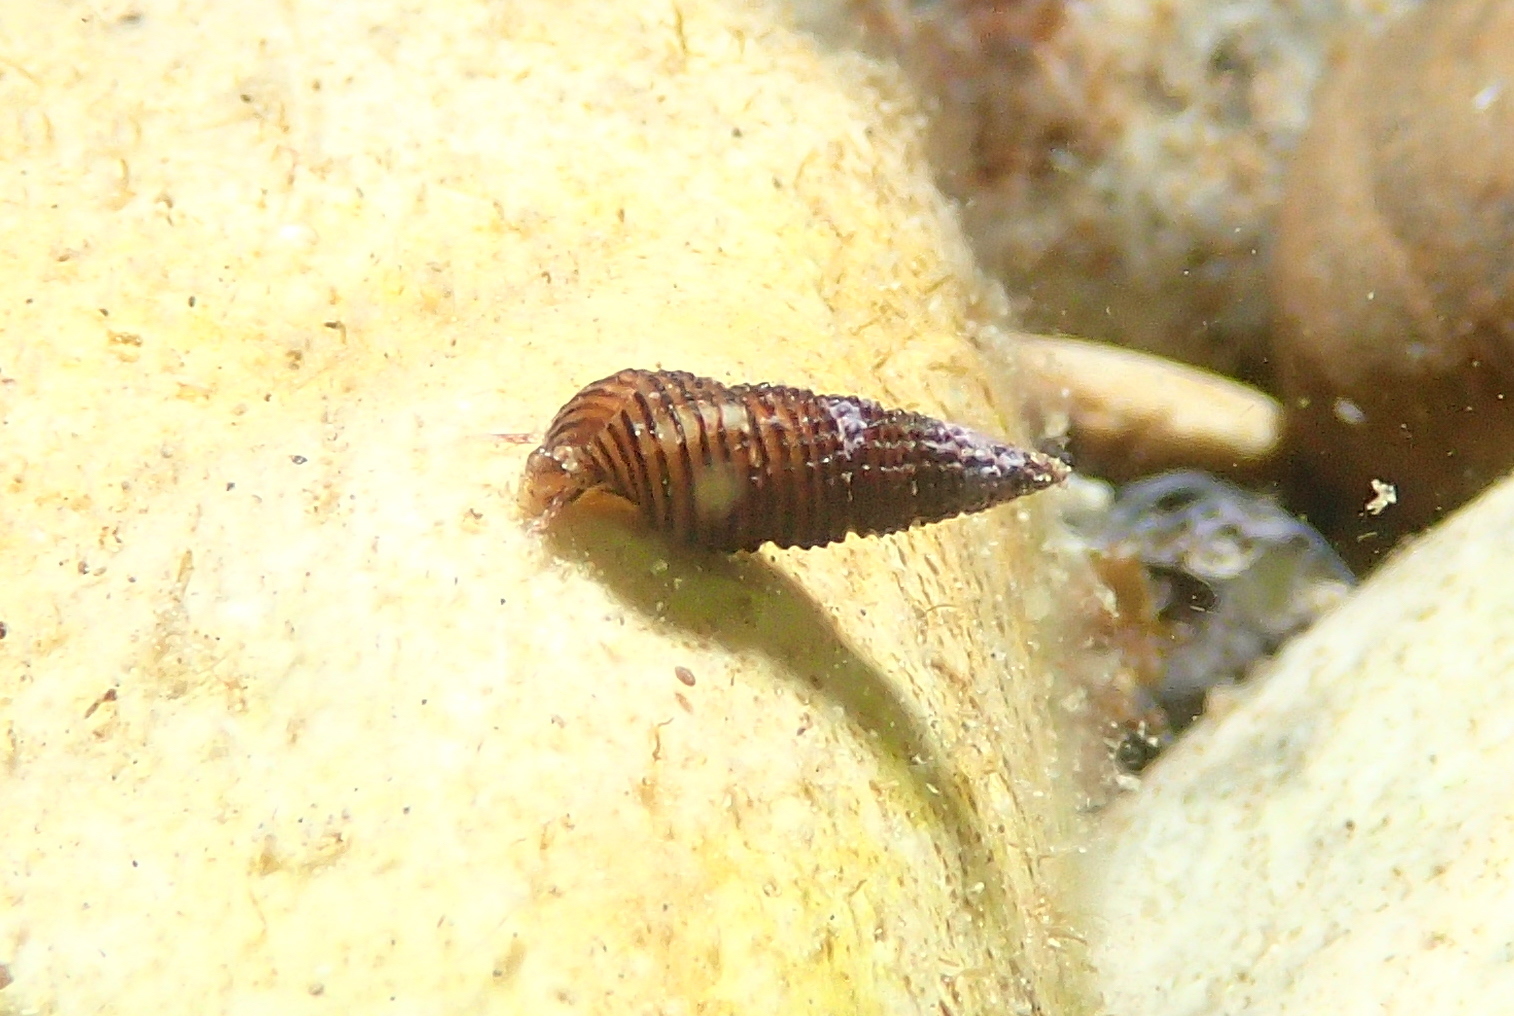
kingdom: Animalia
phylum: Mollusca
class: Gastropoda
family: Cerithiidae
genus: Bittium
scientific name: Bittium reticulatum
